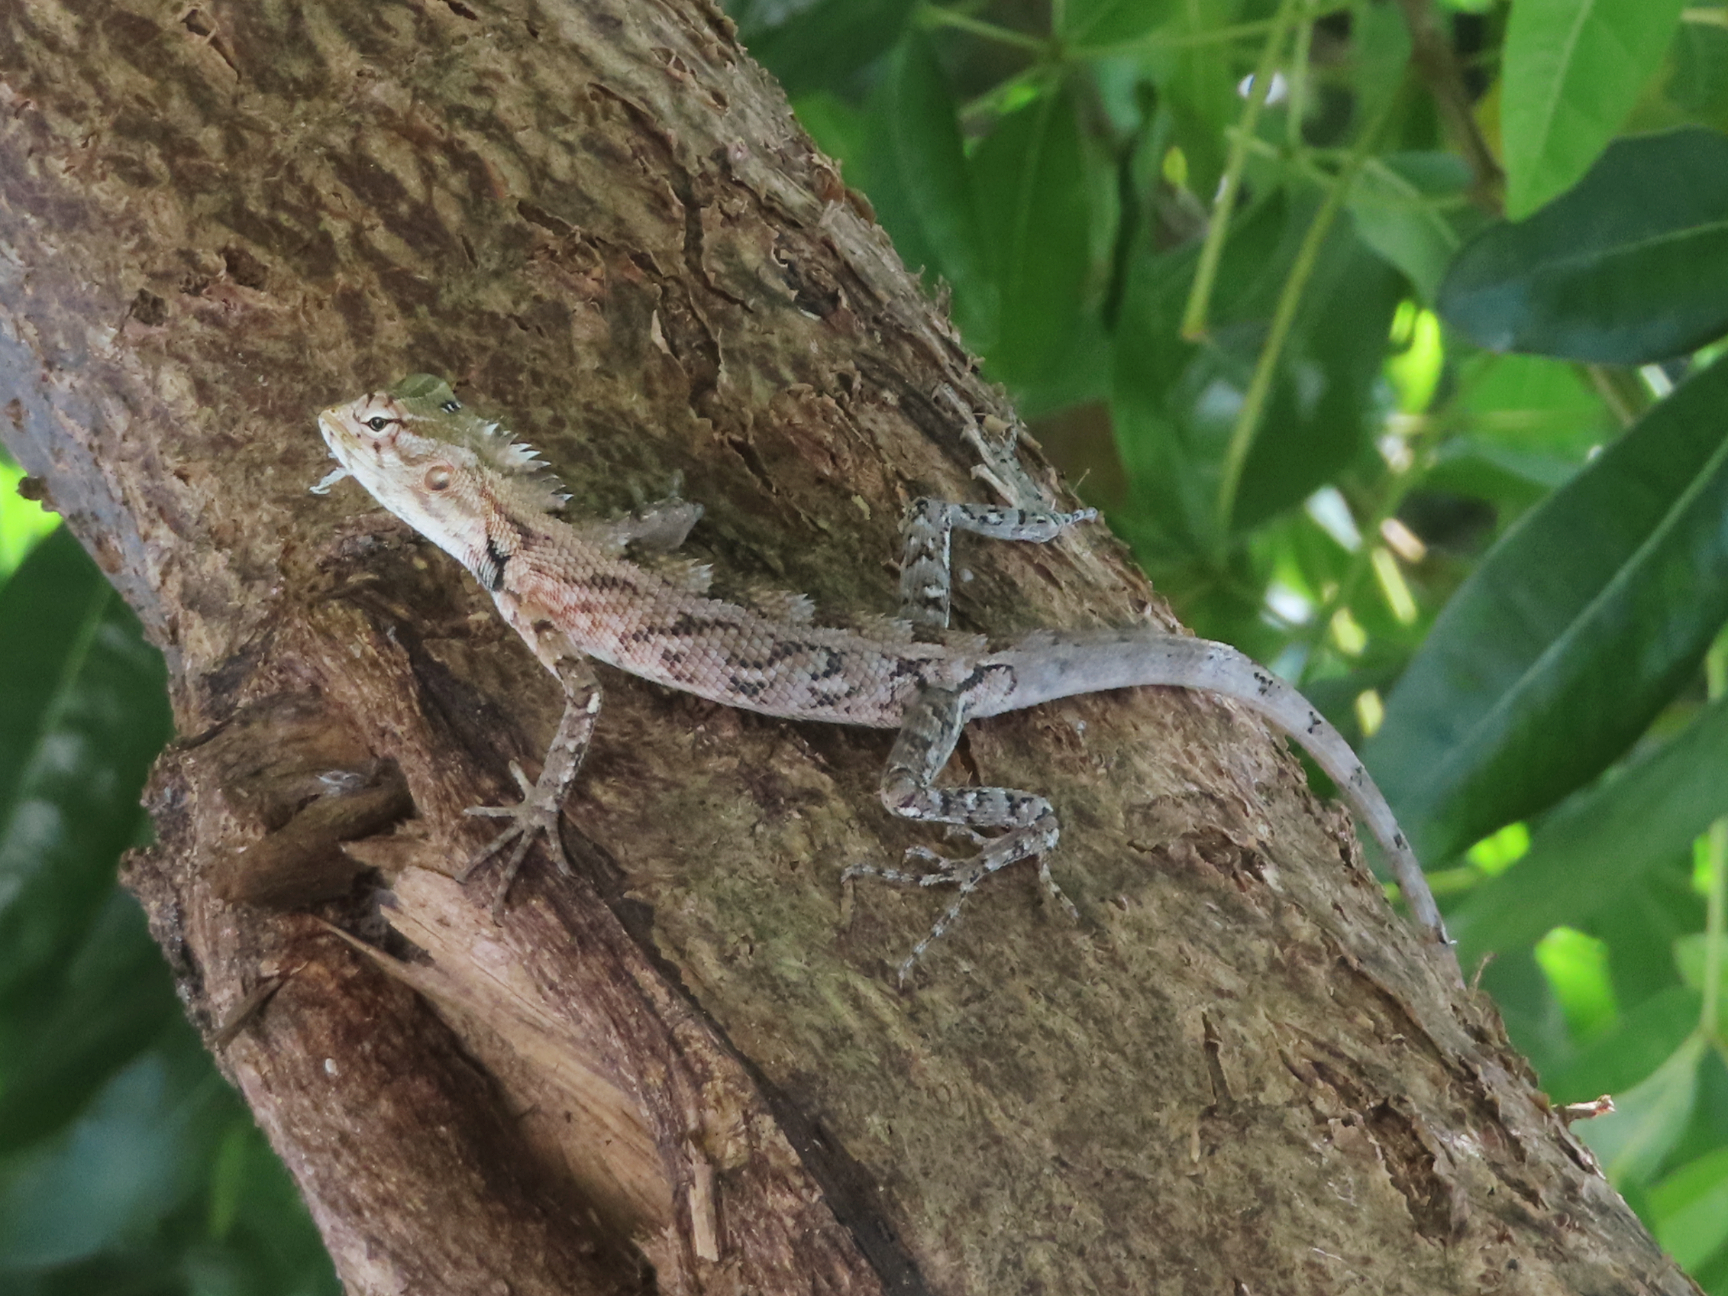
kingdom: Animalia
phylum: Chordata
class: Squamata
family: Agamidae
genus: Calotes
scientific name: Calotes versicolor
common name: Oriental garden lizard
